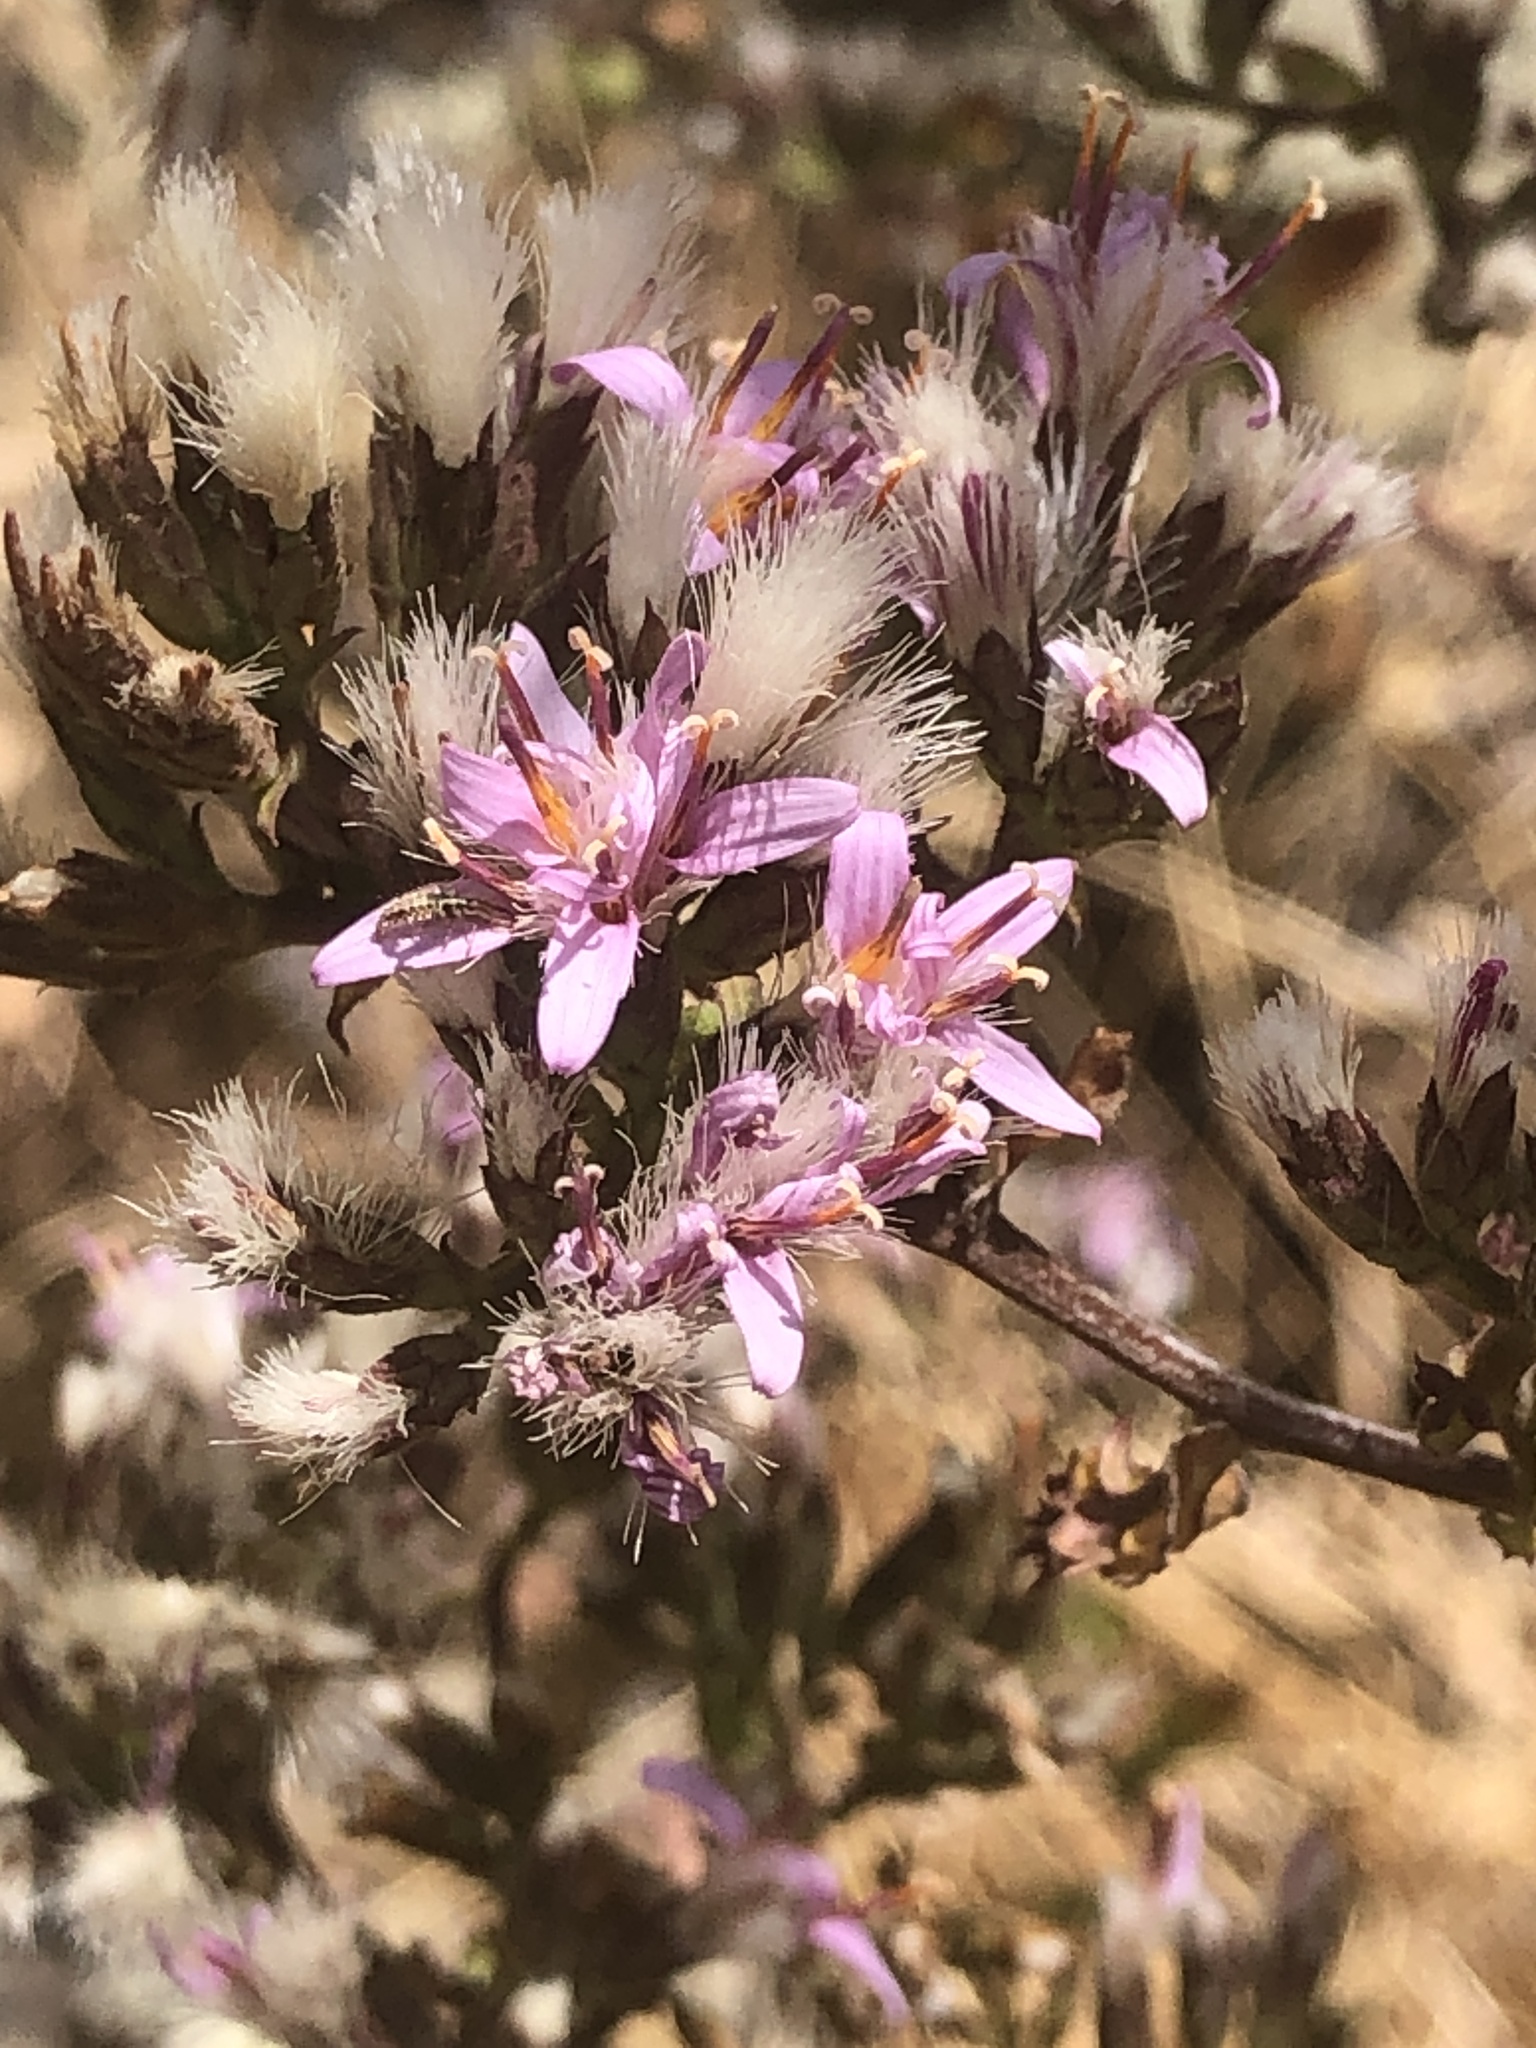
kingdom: Plantae
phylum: Tracheophyta
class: Magnoliopsida
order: Asterales
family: Asteraceae
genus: Acourtia
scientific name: Acourtia microcephala
